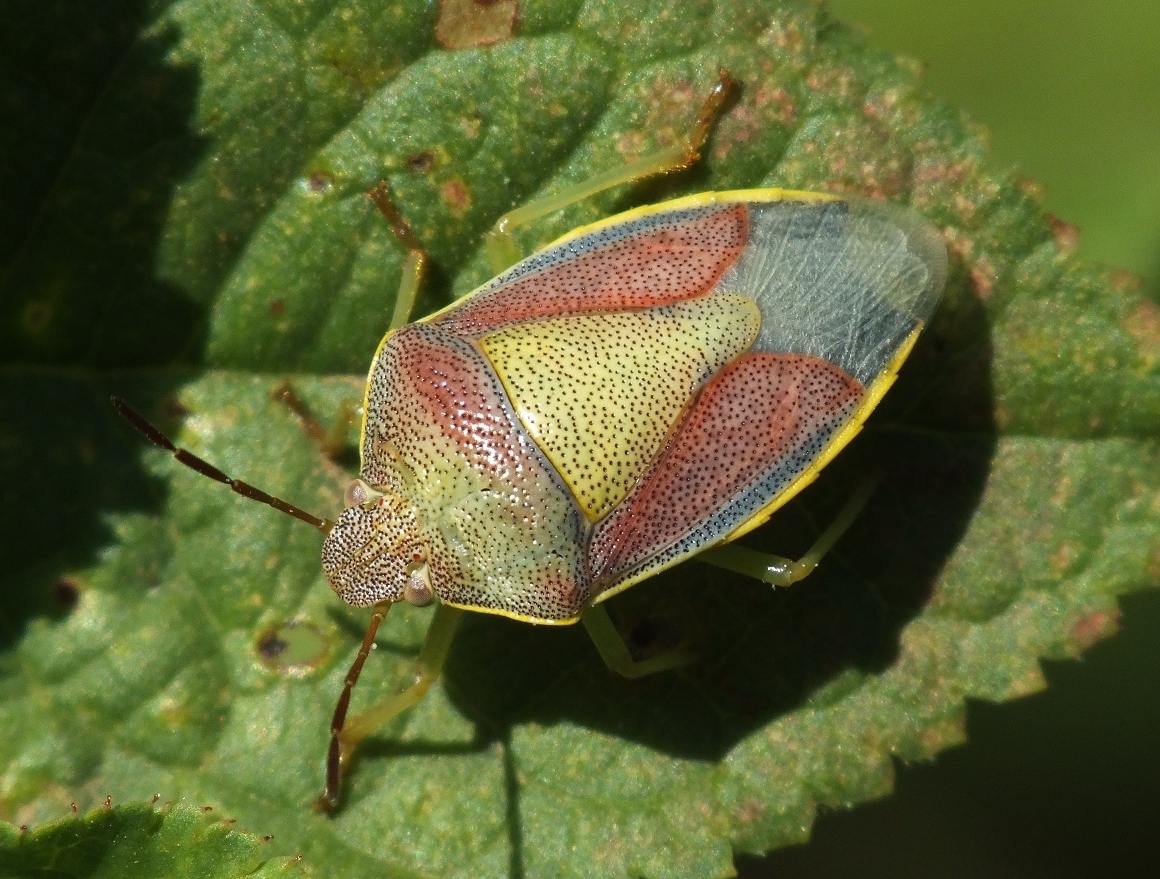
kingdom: Animalia
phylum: Arthropoda
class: Insecta
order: Hemiptera
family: Pentatomidae
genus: Piezodorus
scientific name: Piezodorus lituratus
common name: Stink bug
